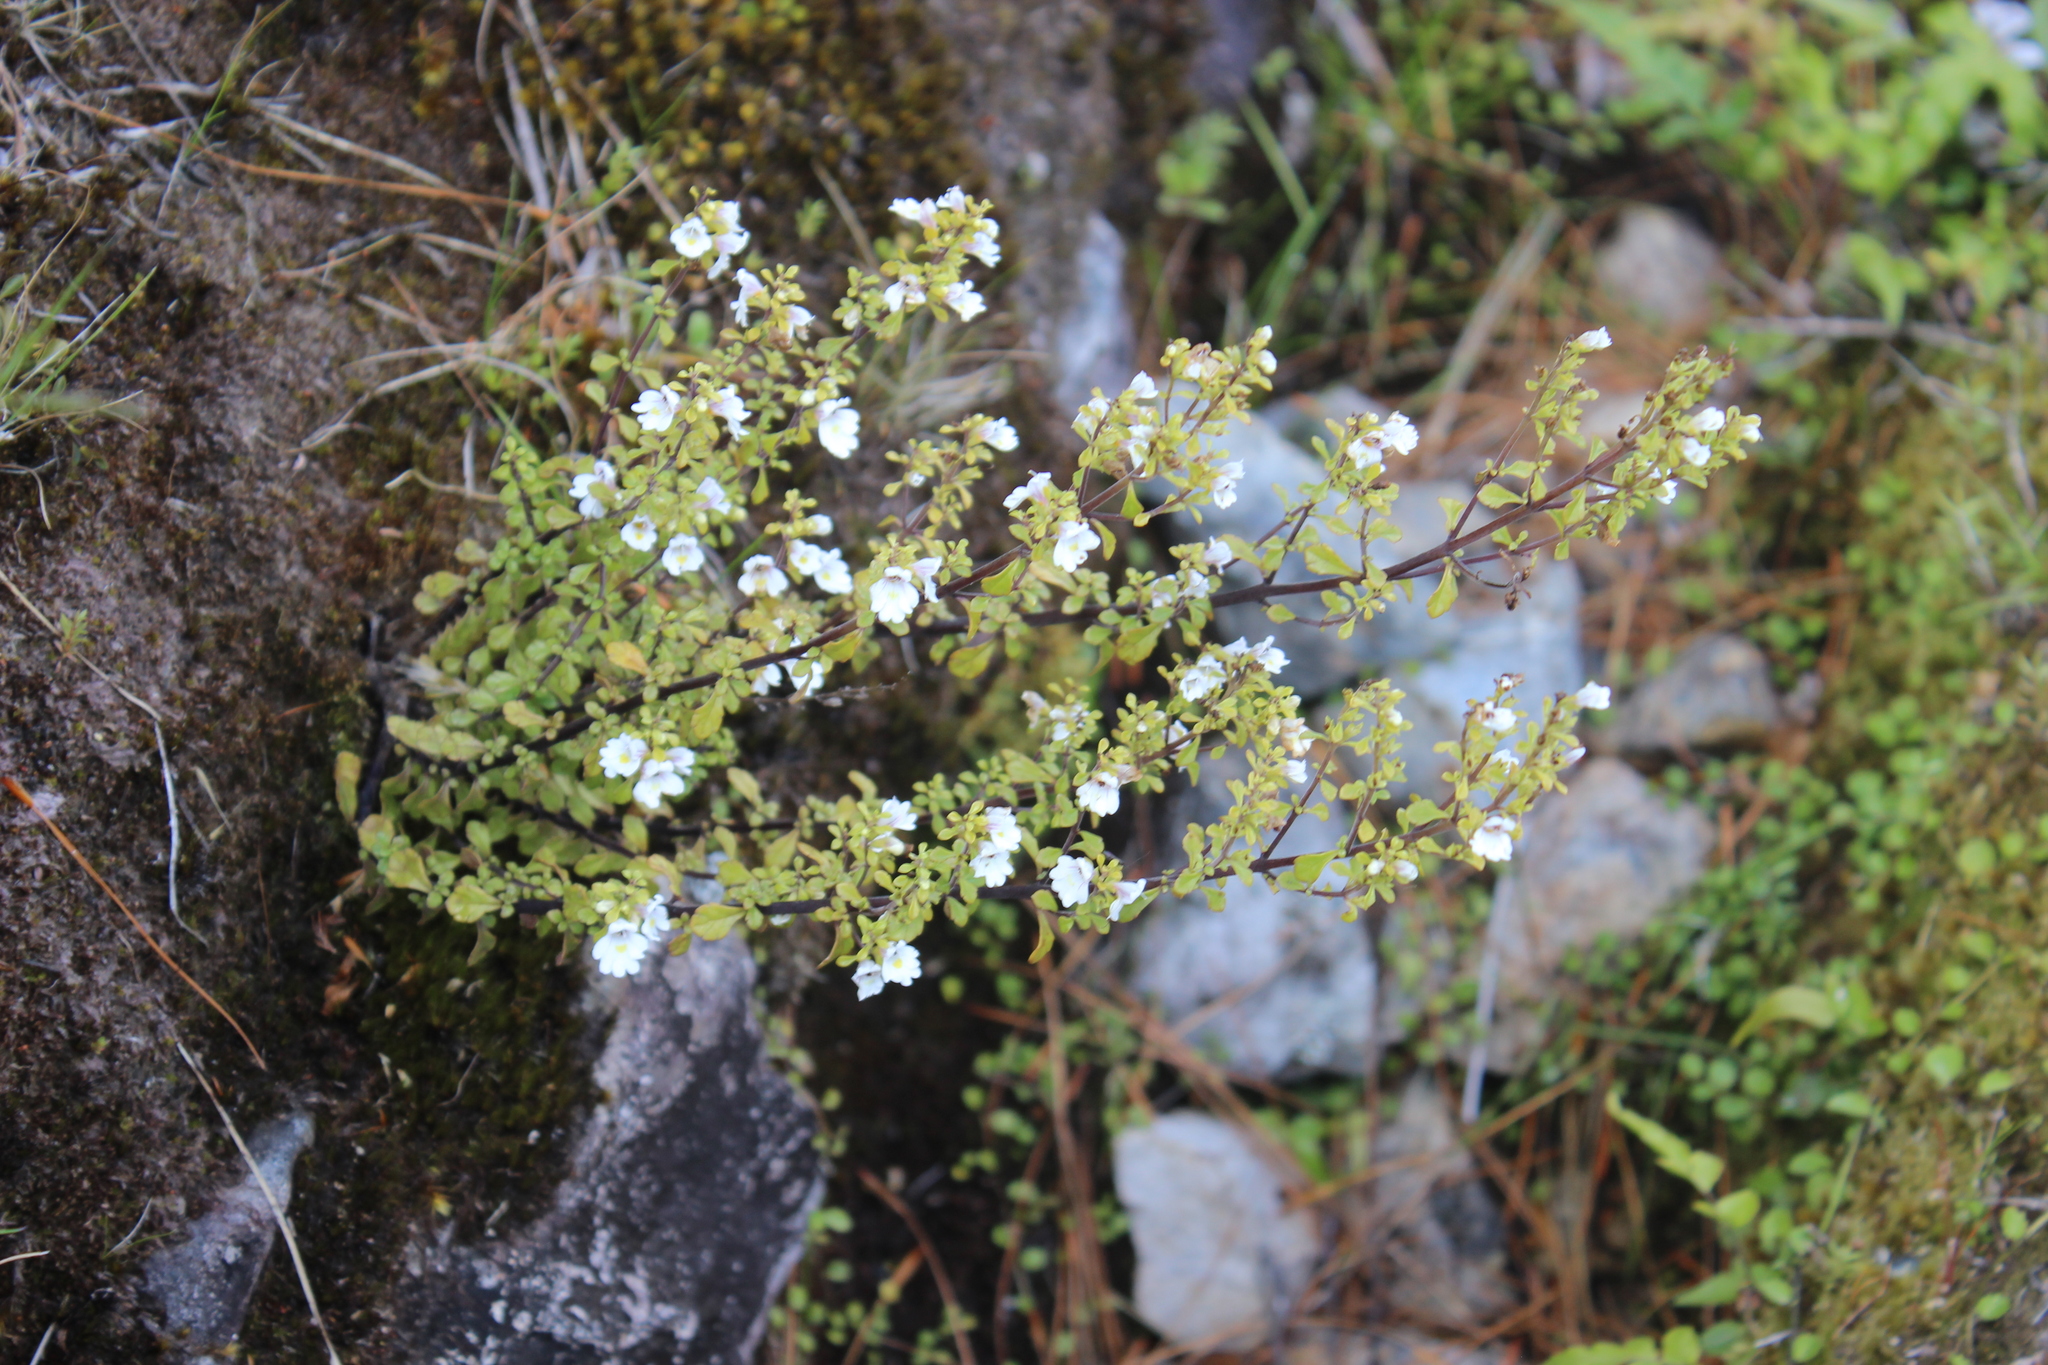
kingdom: Plantae
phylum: Tracheophyta
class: Magnoliopsida
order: Lamiales
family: Orobanchaceae
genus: Euphrasia
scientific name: Euphrasia cuneata
